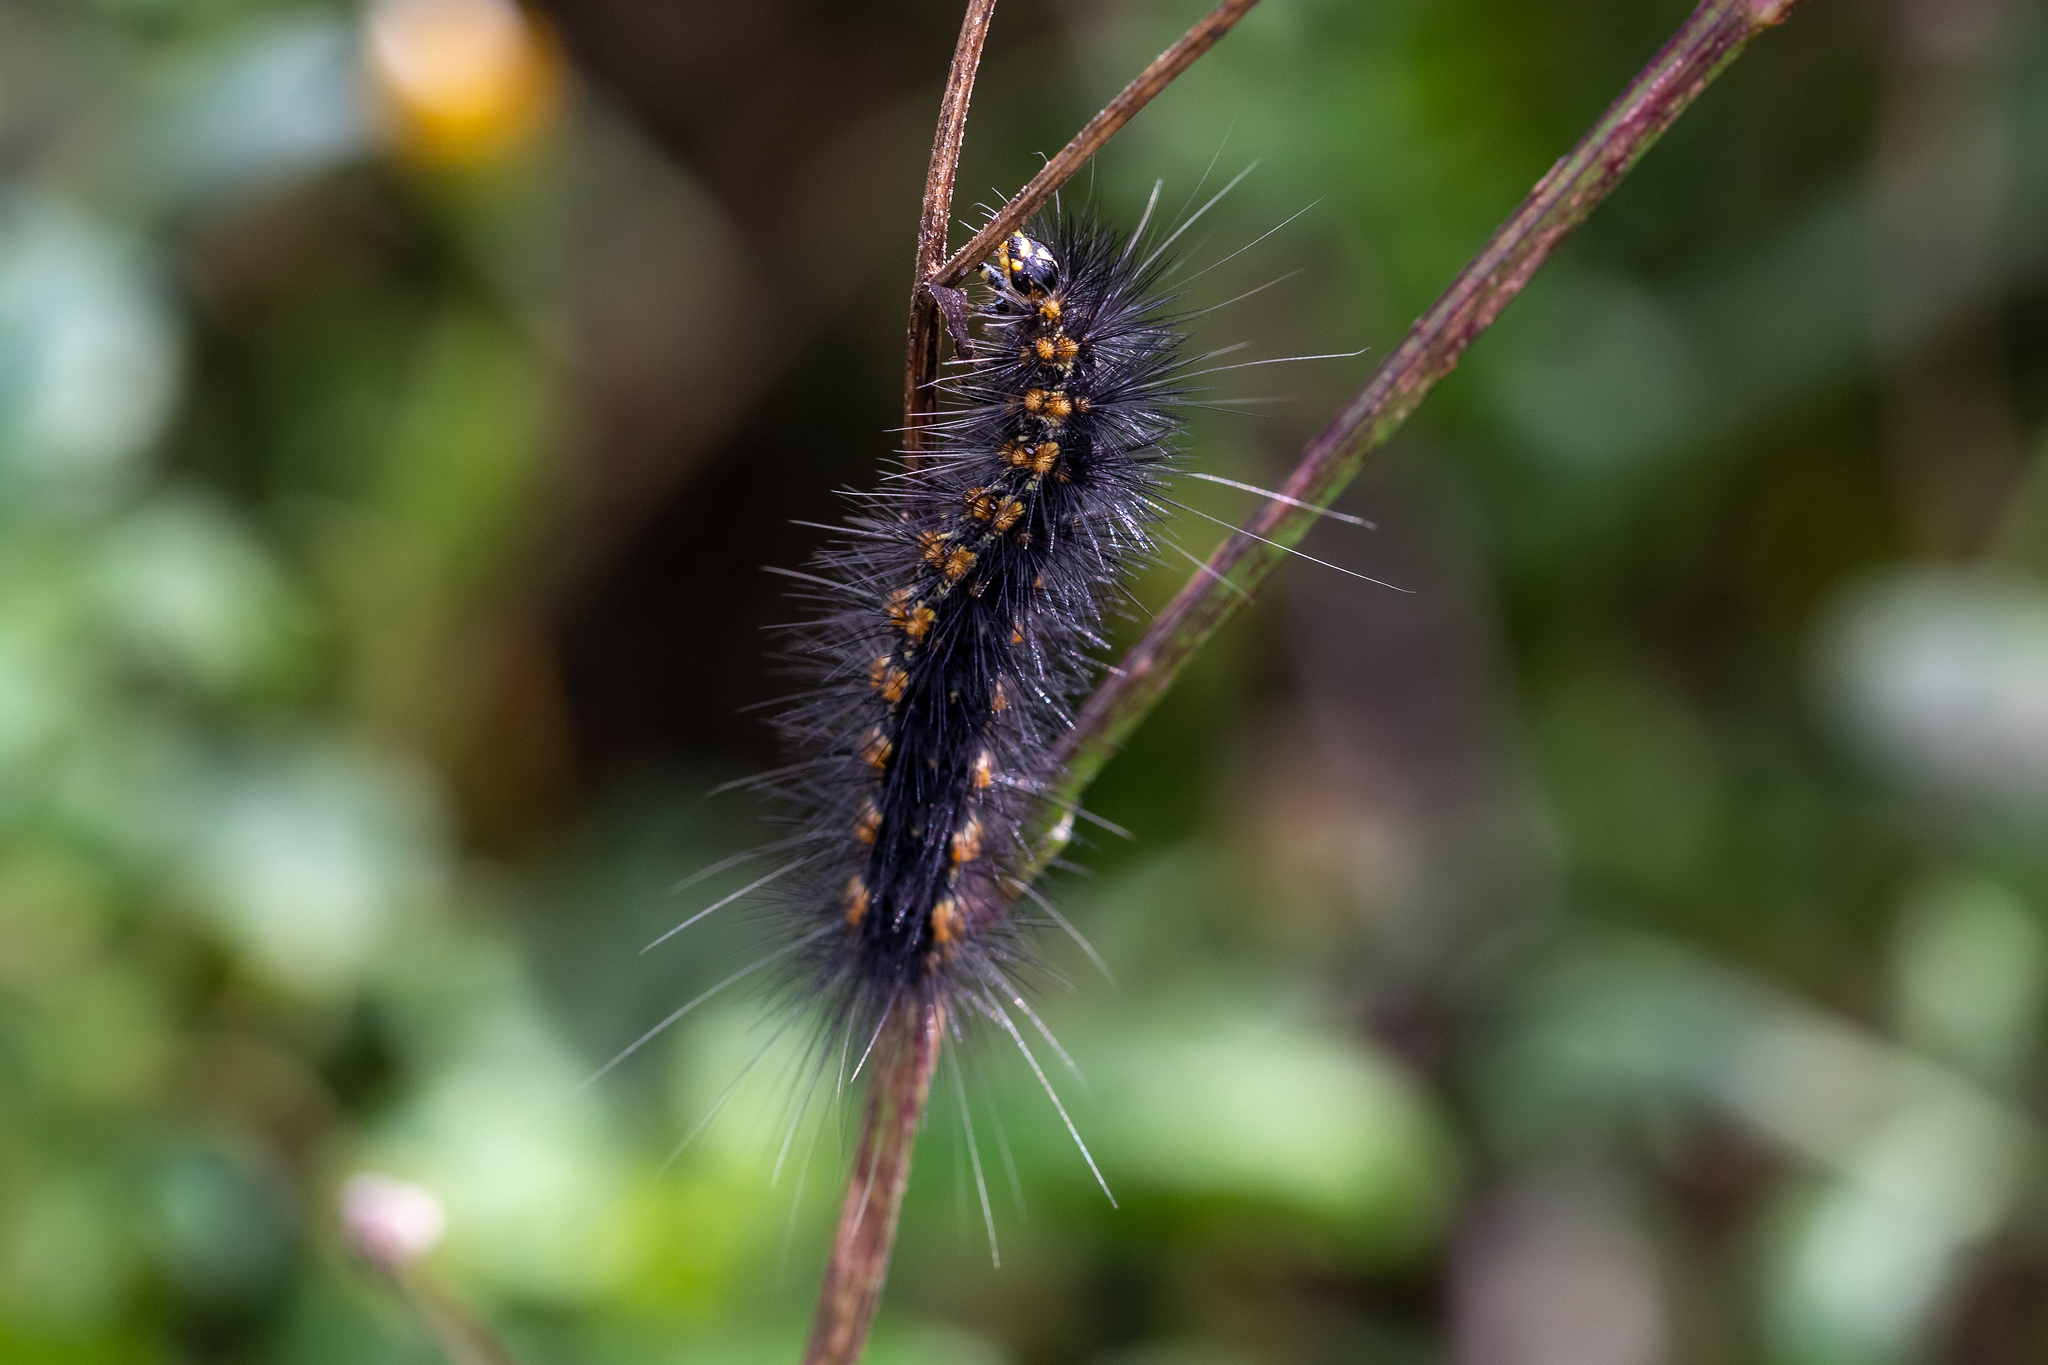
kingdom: Animalia
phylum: Arthropoda
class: Insecta
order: Lepidoptera
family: Erebidae
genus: Estigmene
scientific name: Estigmene acrea
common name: Salt marsh moth
